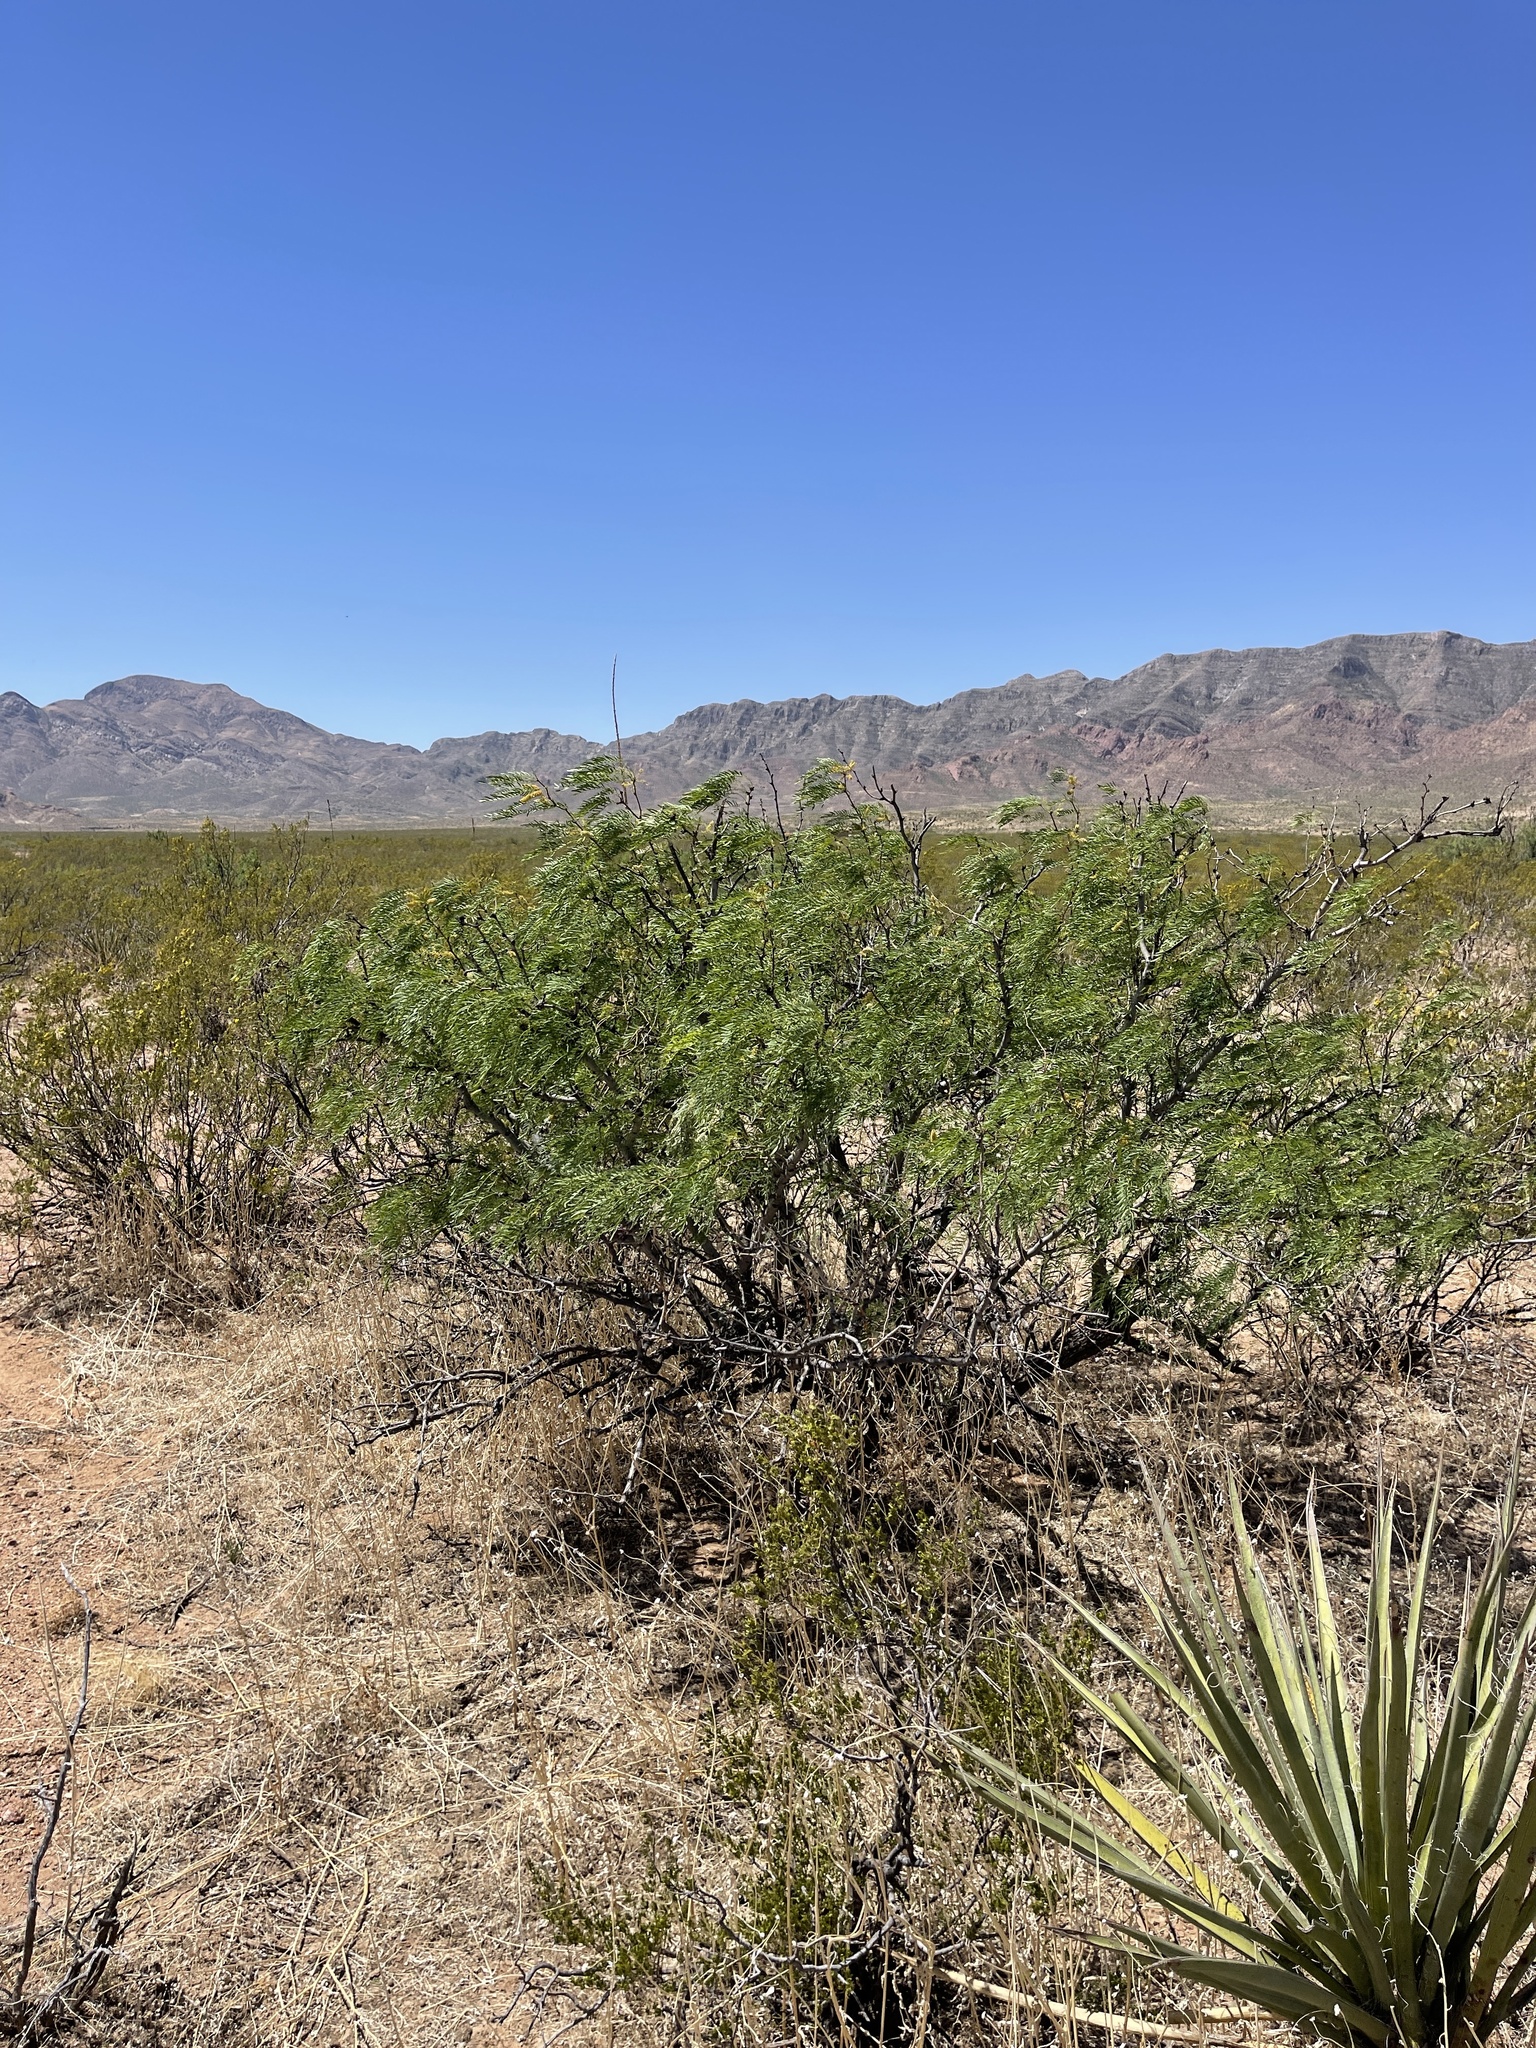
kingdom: Plantae
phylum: Tracheophyta
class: Magnoliopsida
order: Fabales
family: Fabaceae
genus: Prosopis
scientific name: Prosopis glandulosa
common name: Honey mesquite
